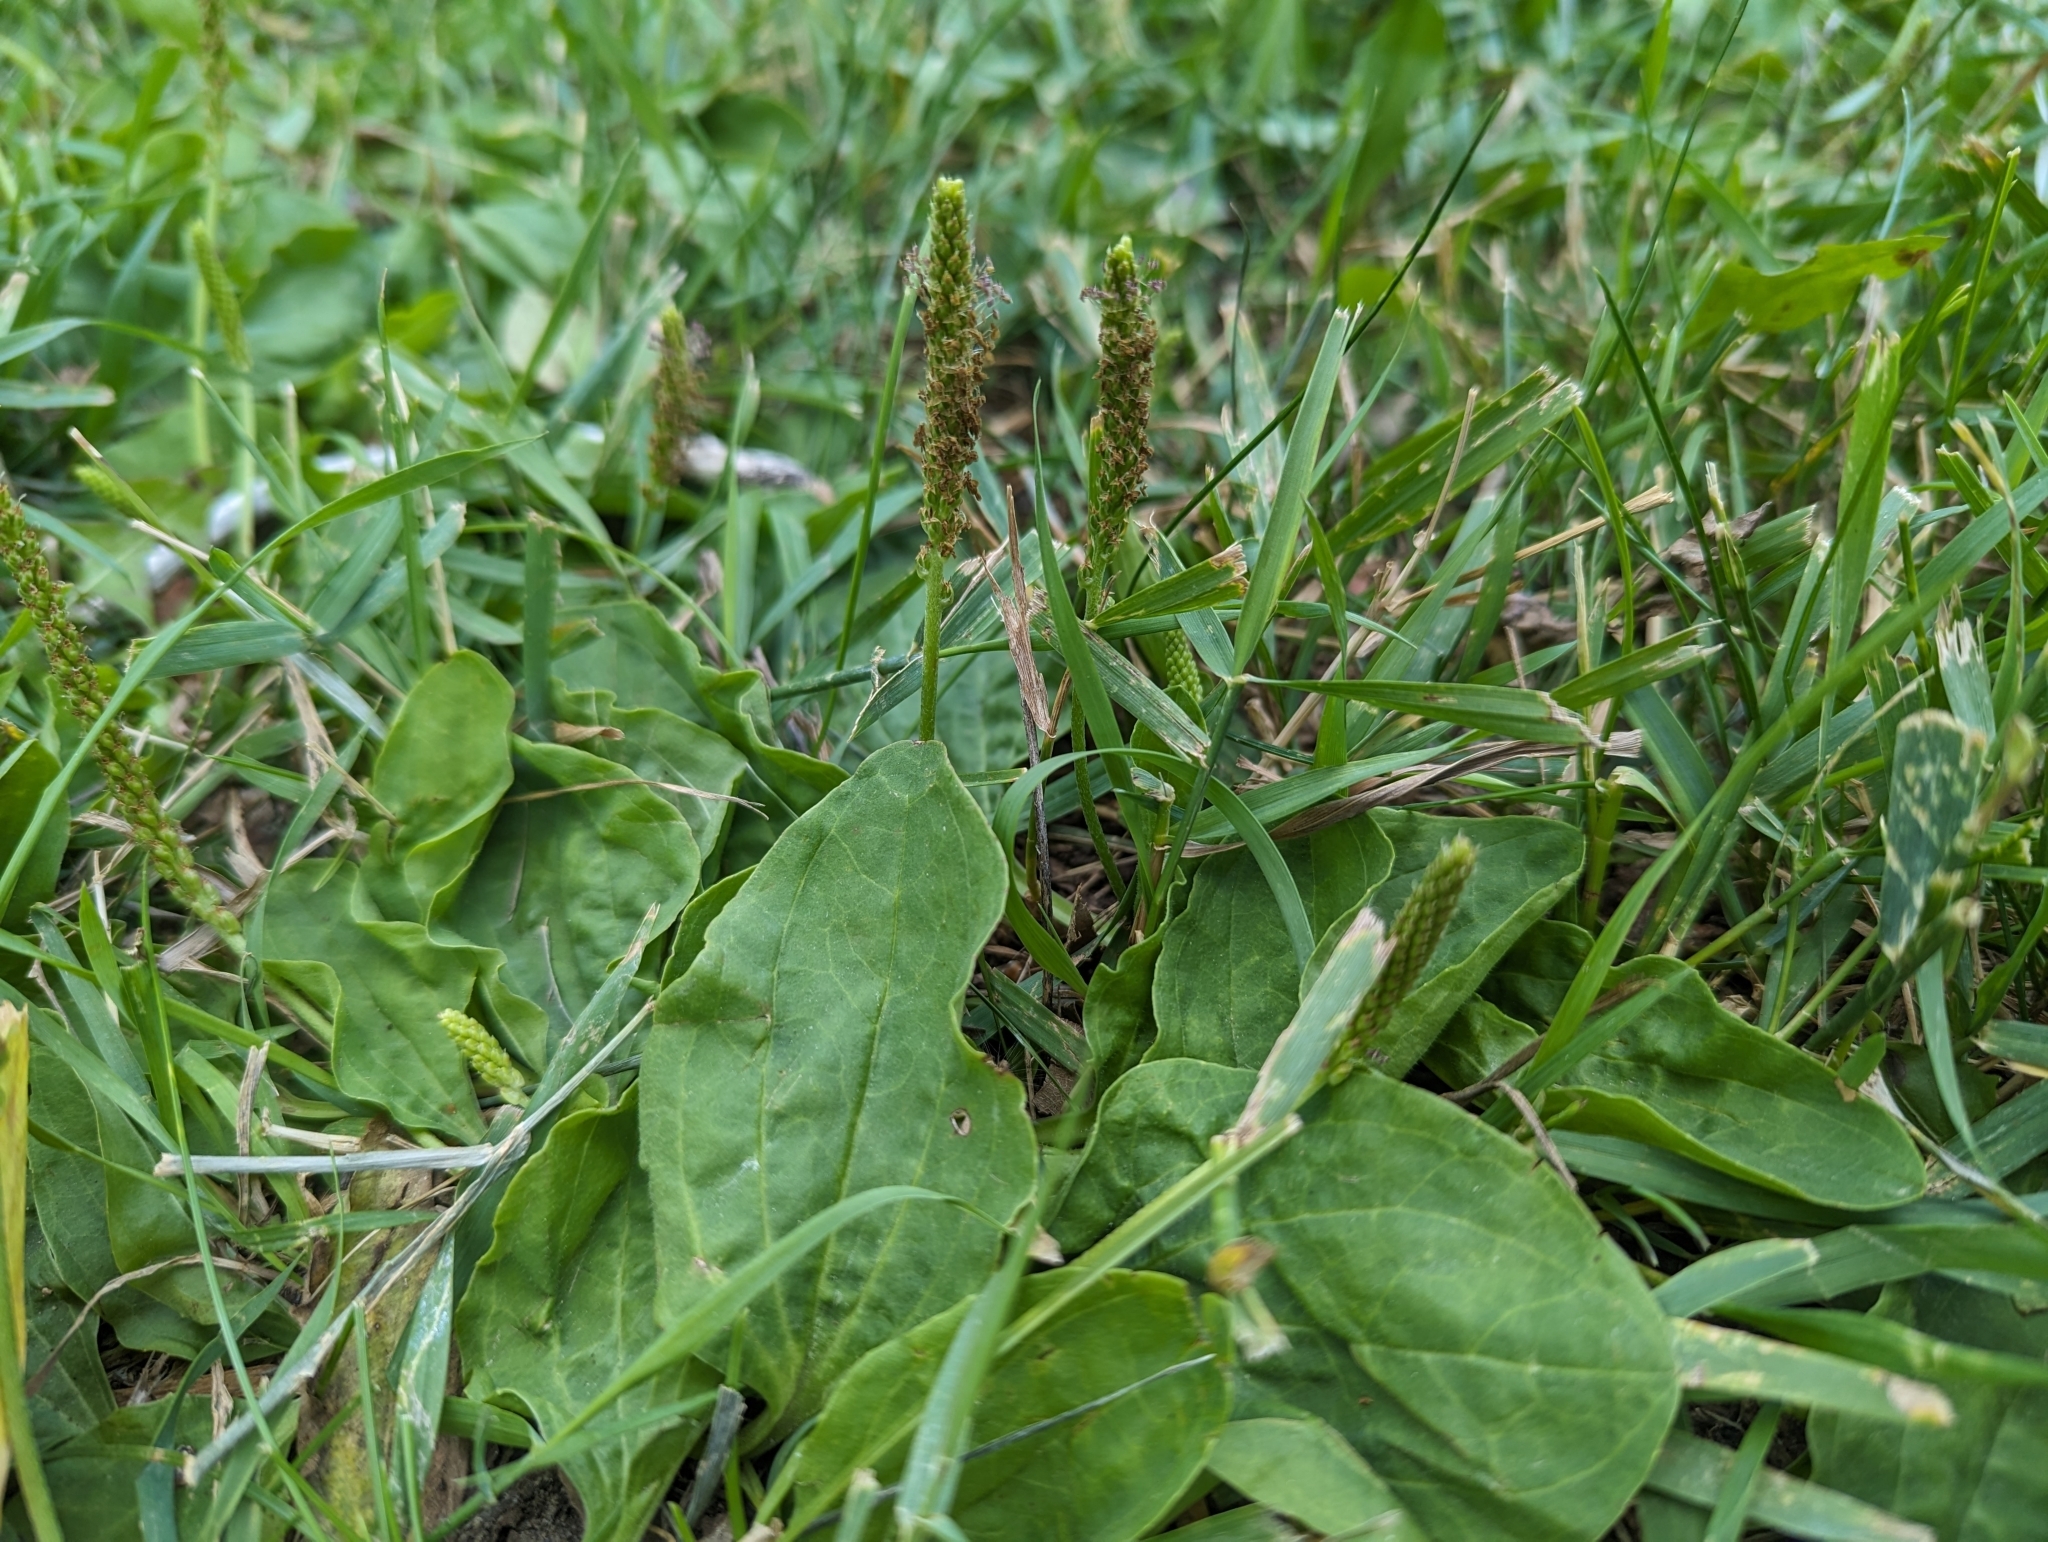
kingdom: Plantae
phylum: Tracheophyta
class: Magnoliopsida
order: Lamiales
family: Plantaginaceae
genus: Plantago
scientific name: Plantago major
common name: Common plantain
